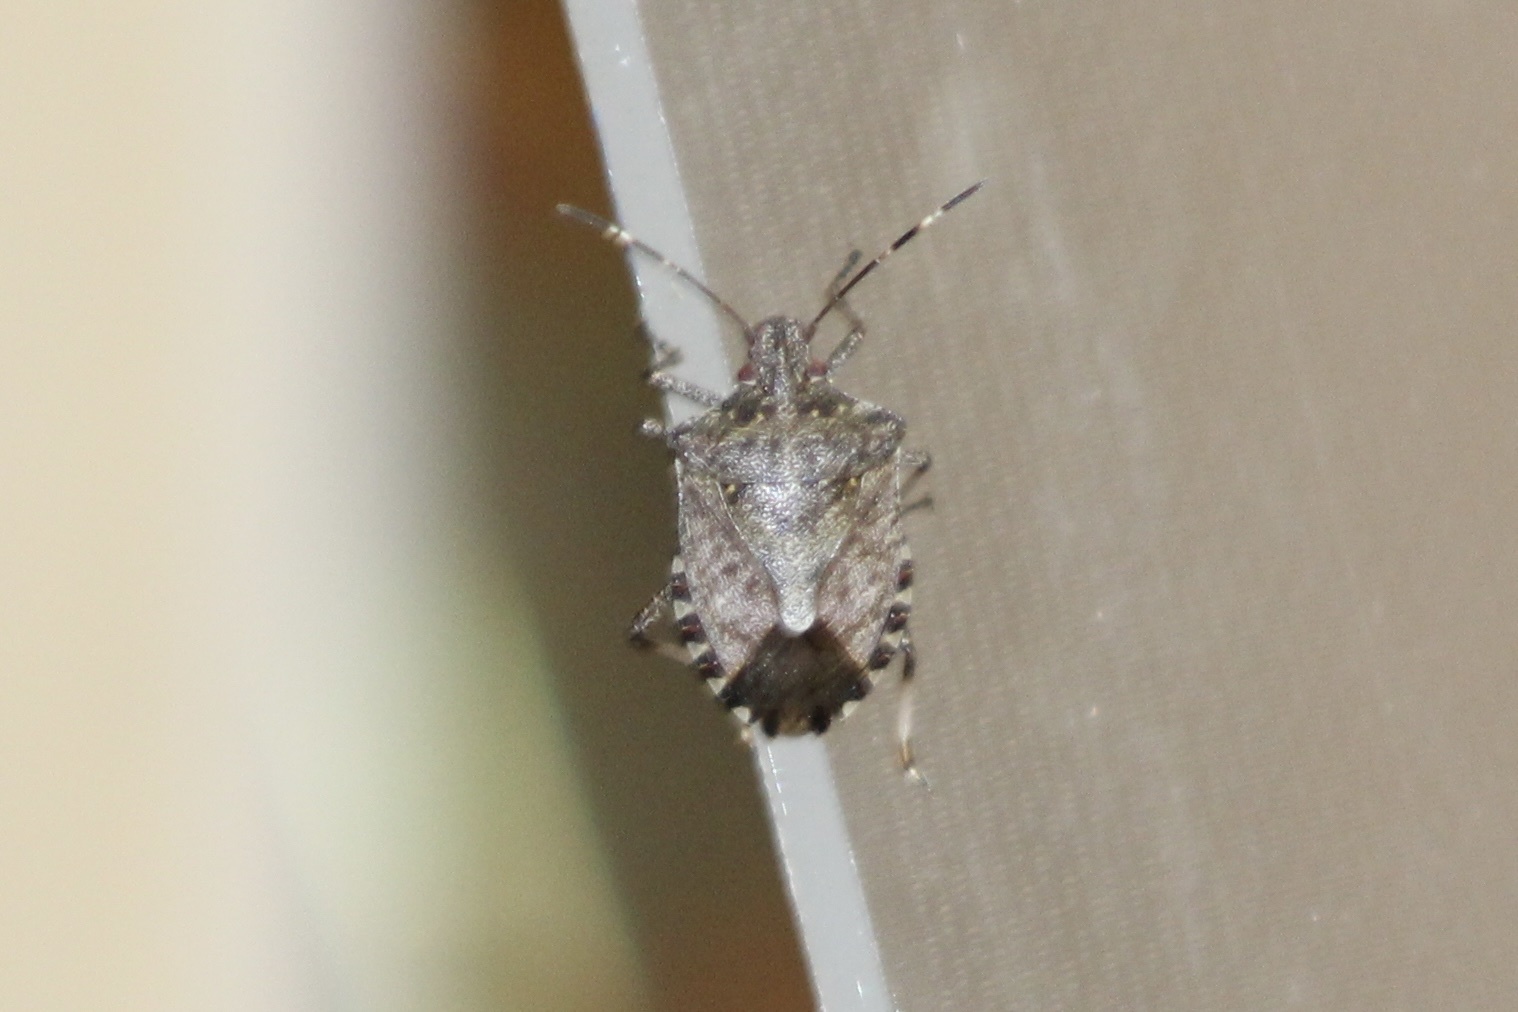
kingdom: Animalia
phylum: Arthropoda
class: Insecta
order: Hemiptera
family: Pentatomidae
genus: Halyomorpha
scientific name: Halyomorpha halys
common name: Brown marmorated stink bug
